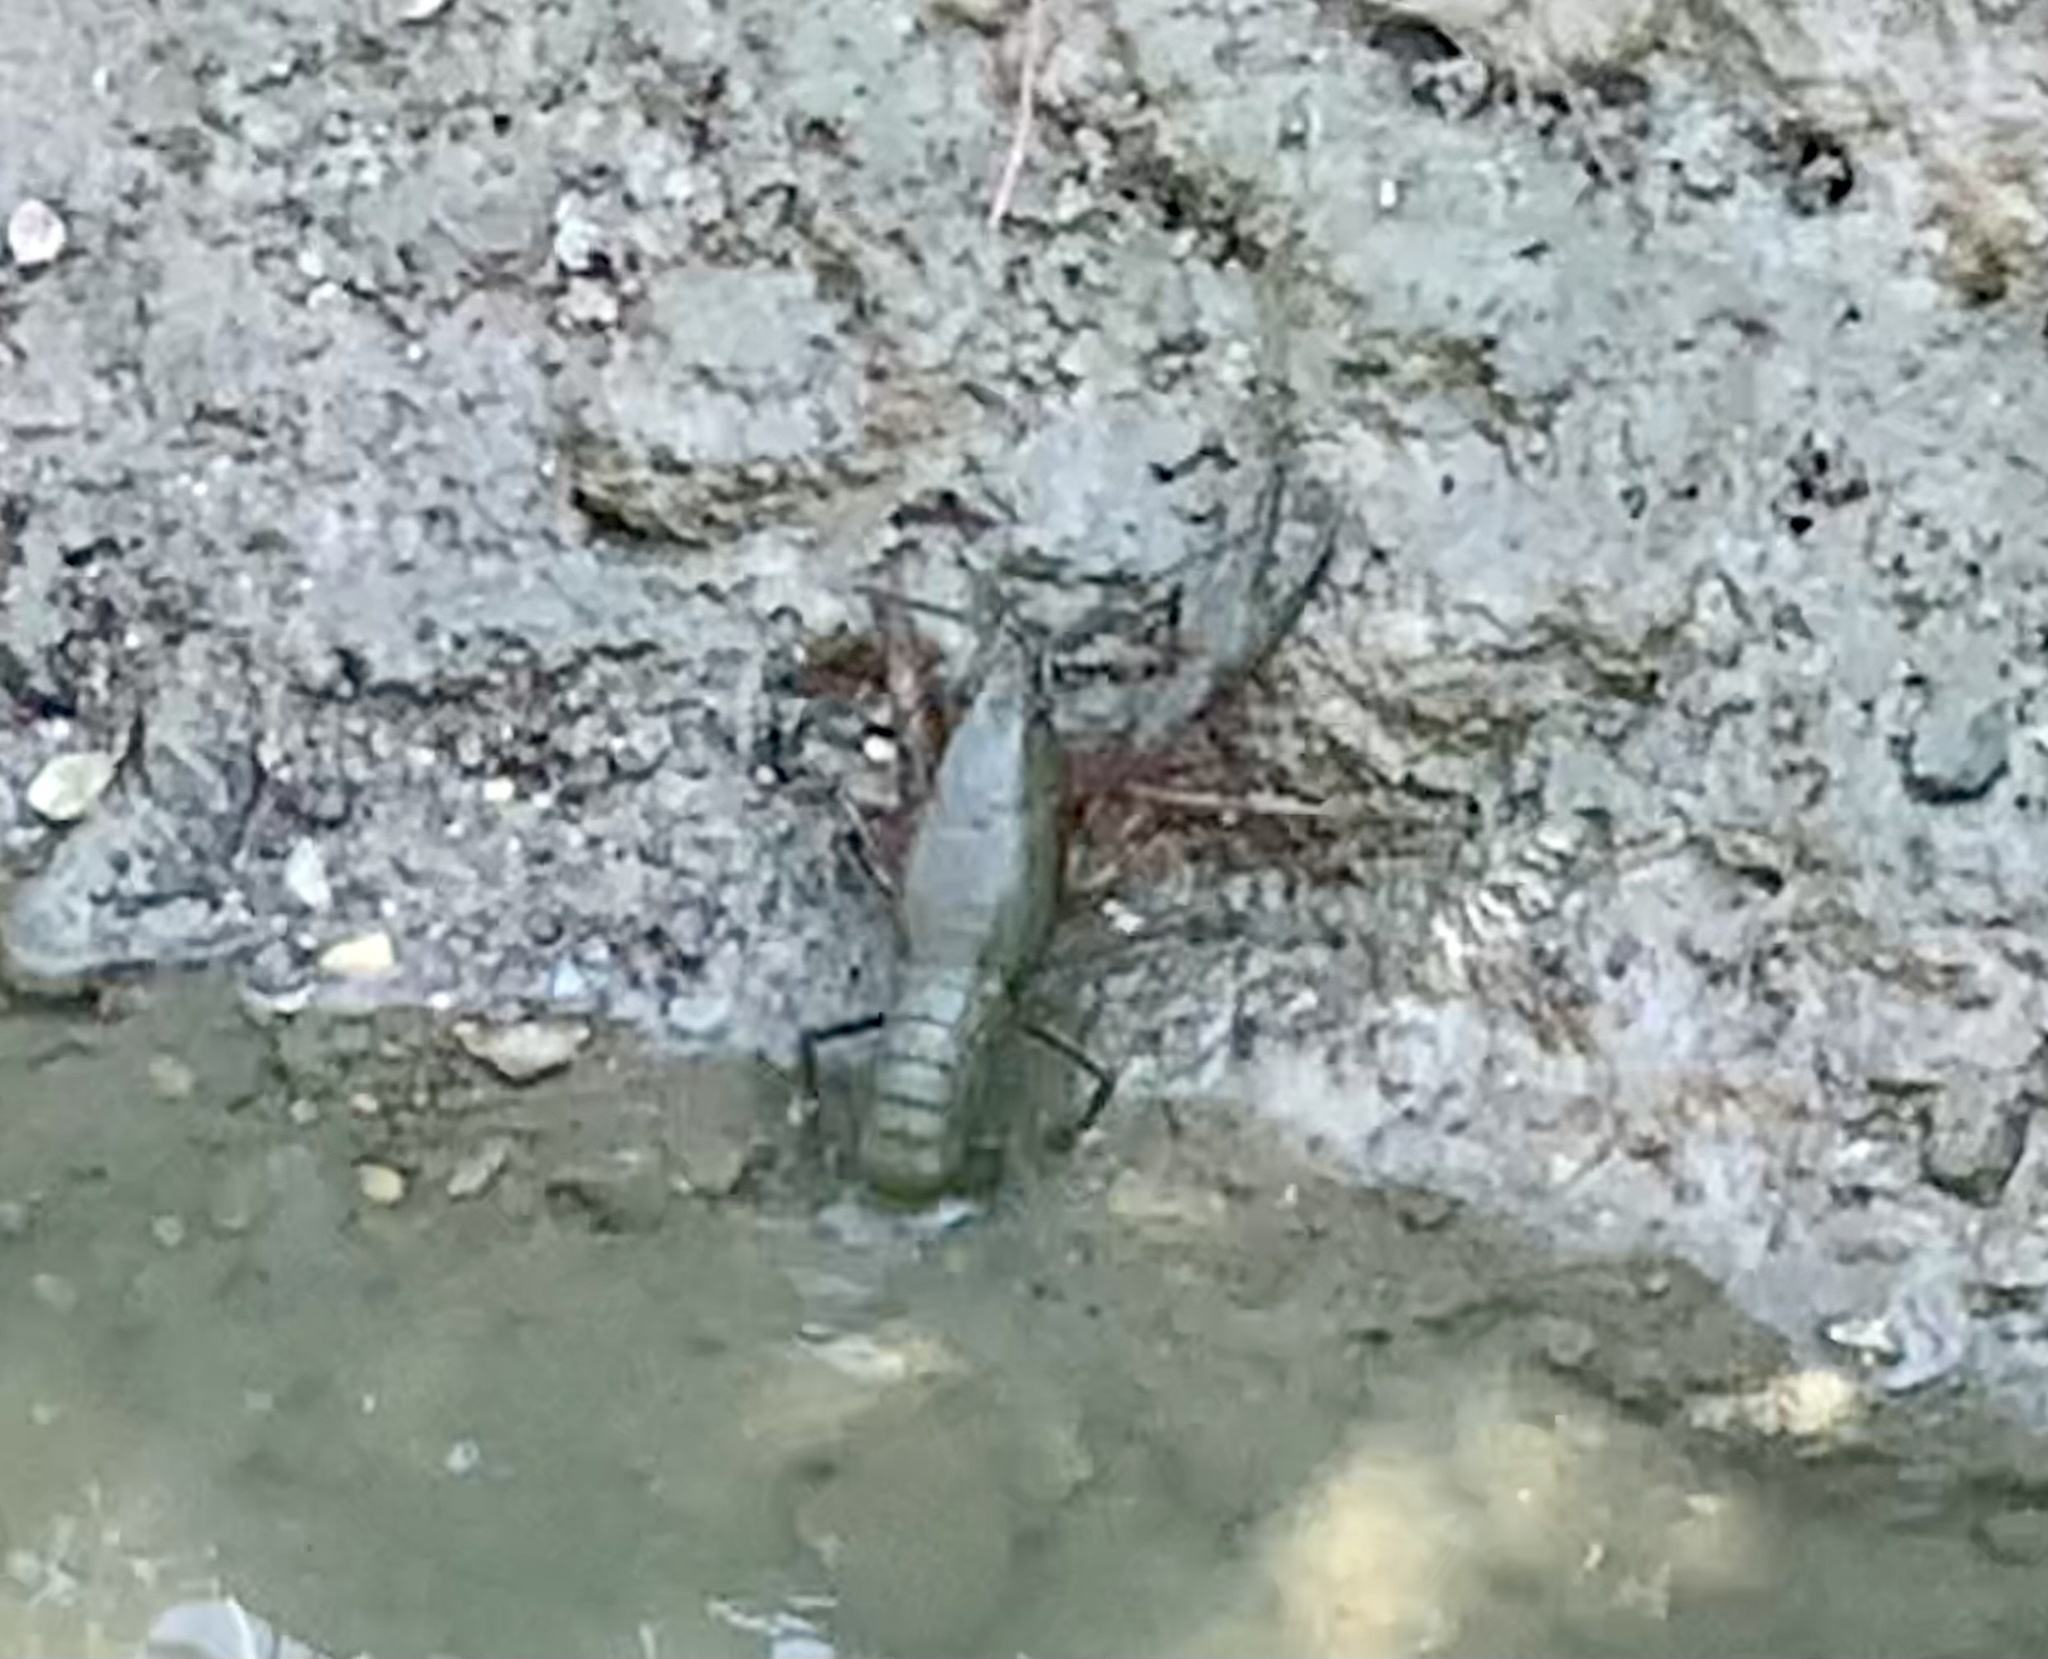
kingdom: Animalia
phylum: Arthropoda
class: Malacostraca
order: Decapoda
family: Cambaridae
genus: Procambarus
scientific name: Procambarus clarkii
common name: Red swamp crayfish
